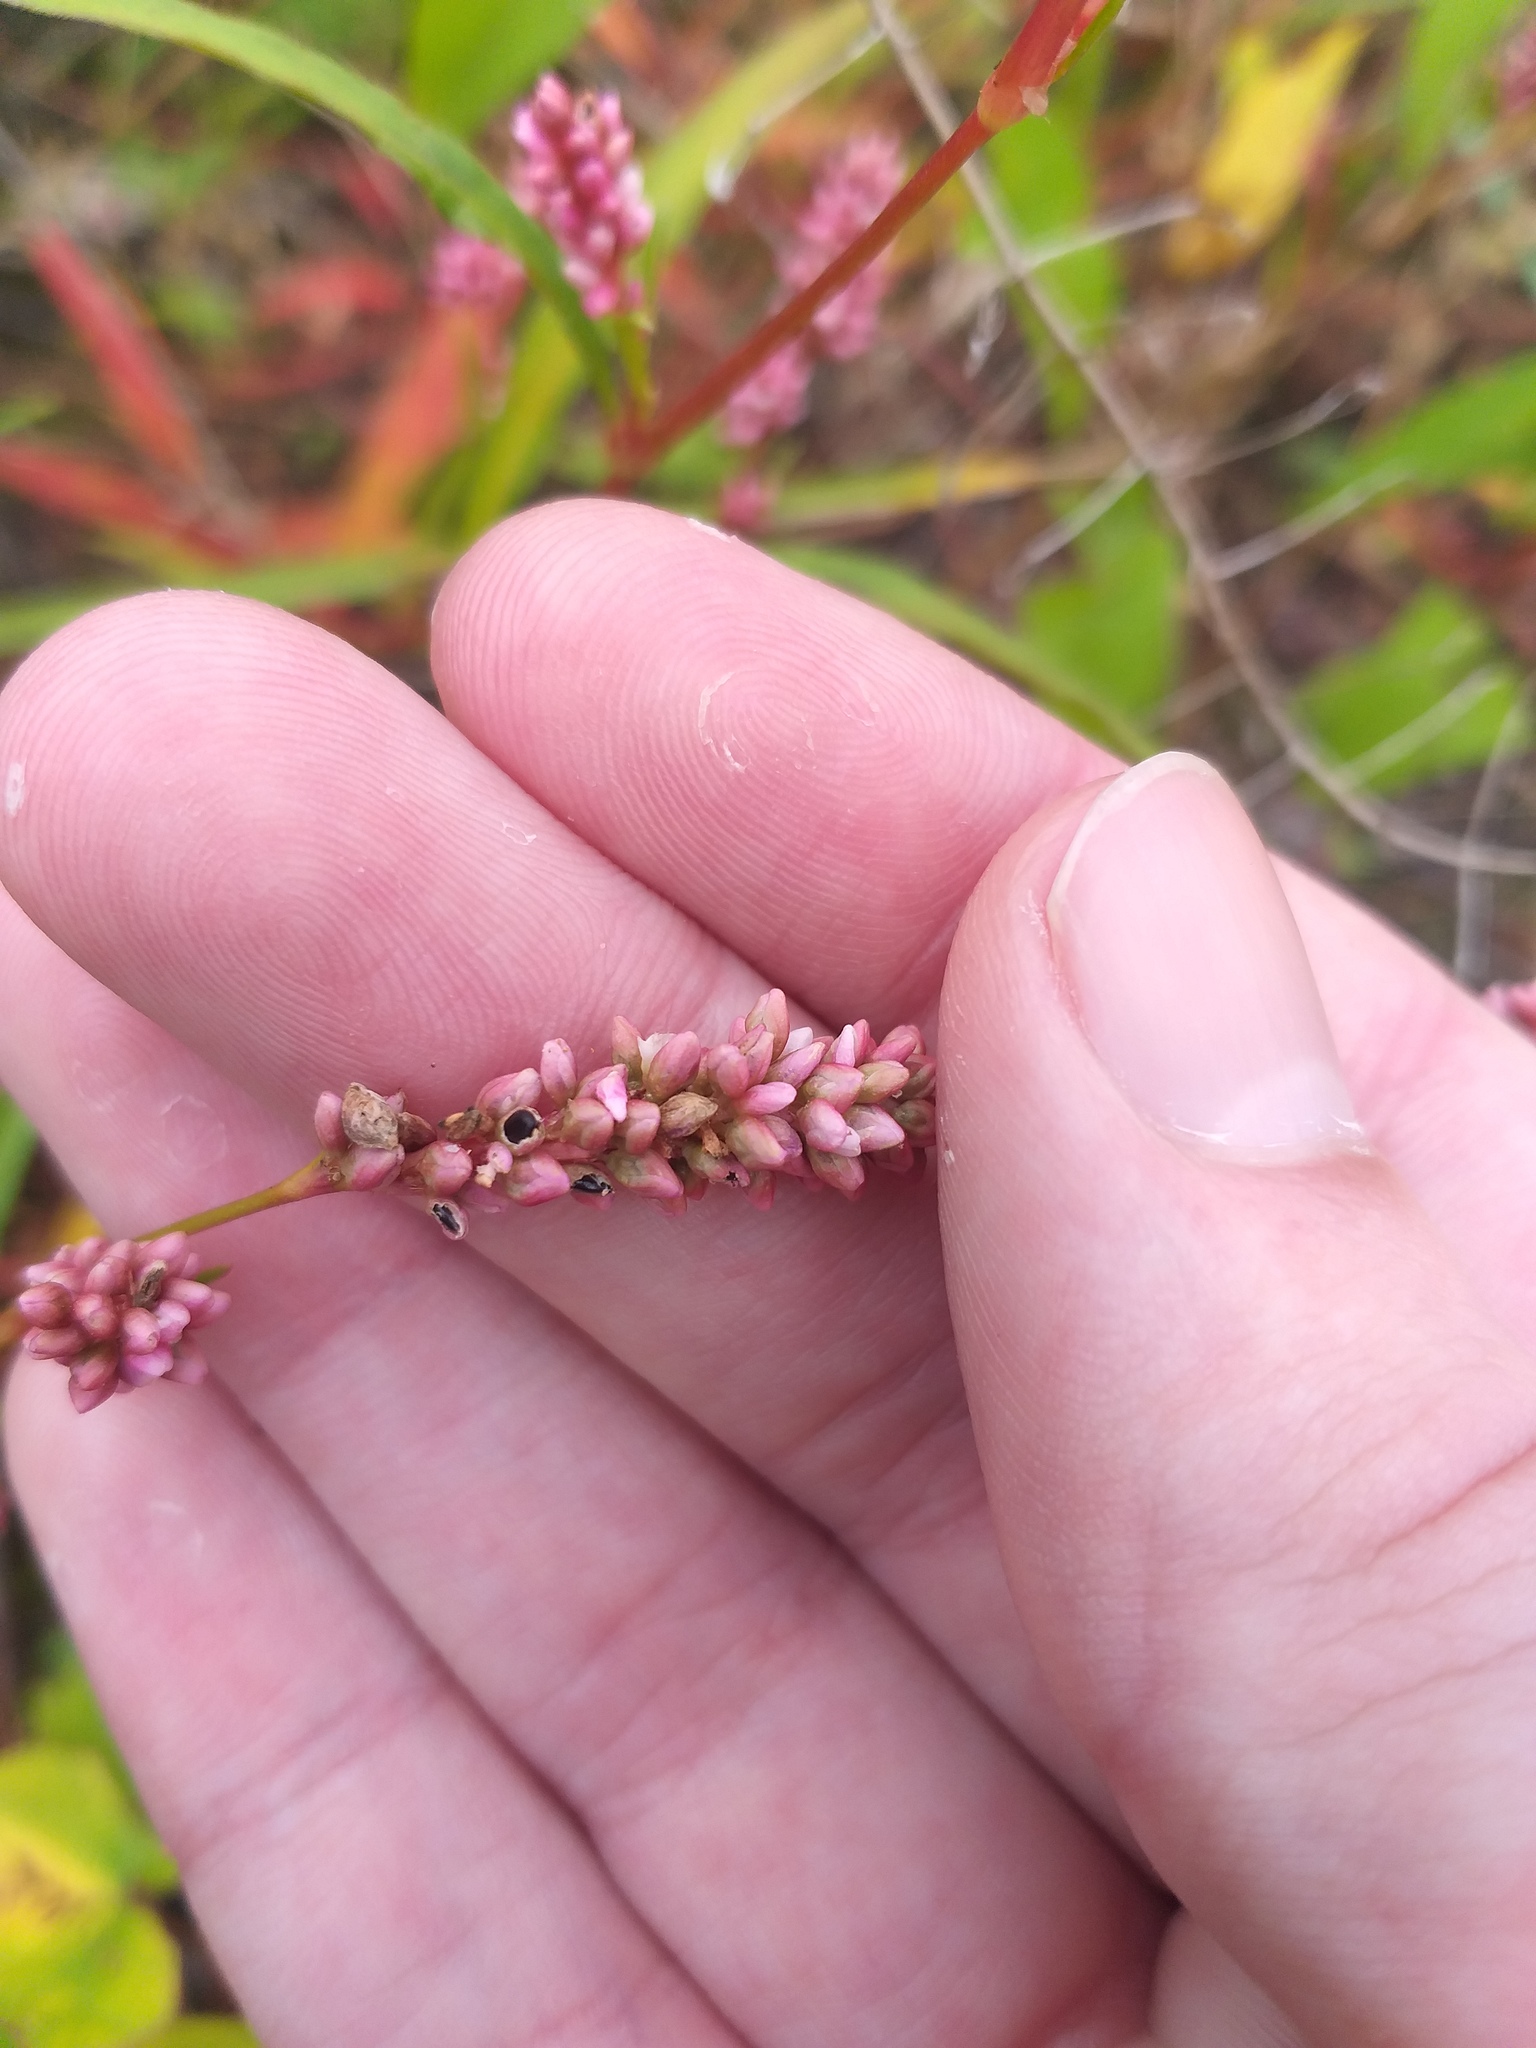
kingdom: Plantae
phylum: Tracheophyta
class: Magnoliopsida
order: Caryophyllales
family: Polygonaceae
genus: Persicaria
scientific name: Persicaria maculosa
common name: Redshank
